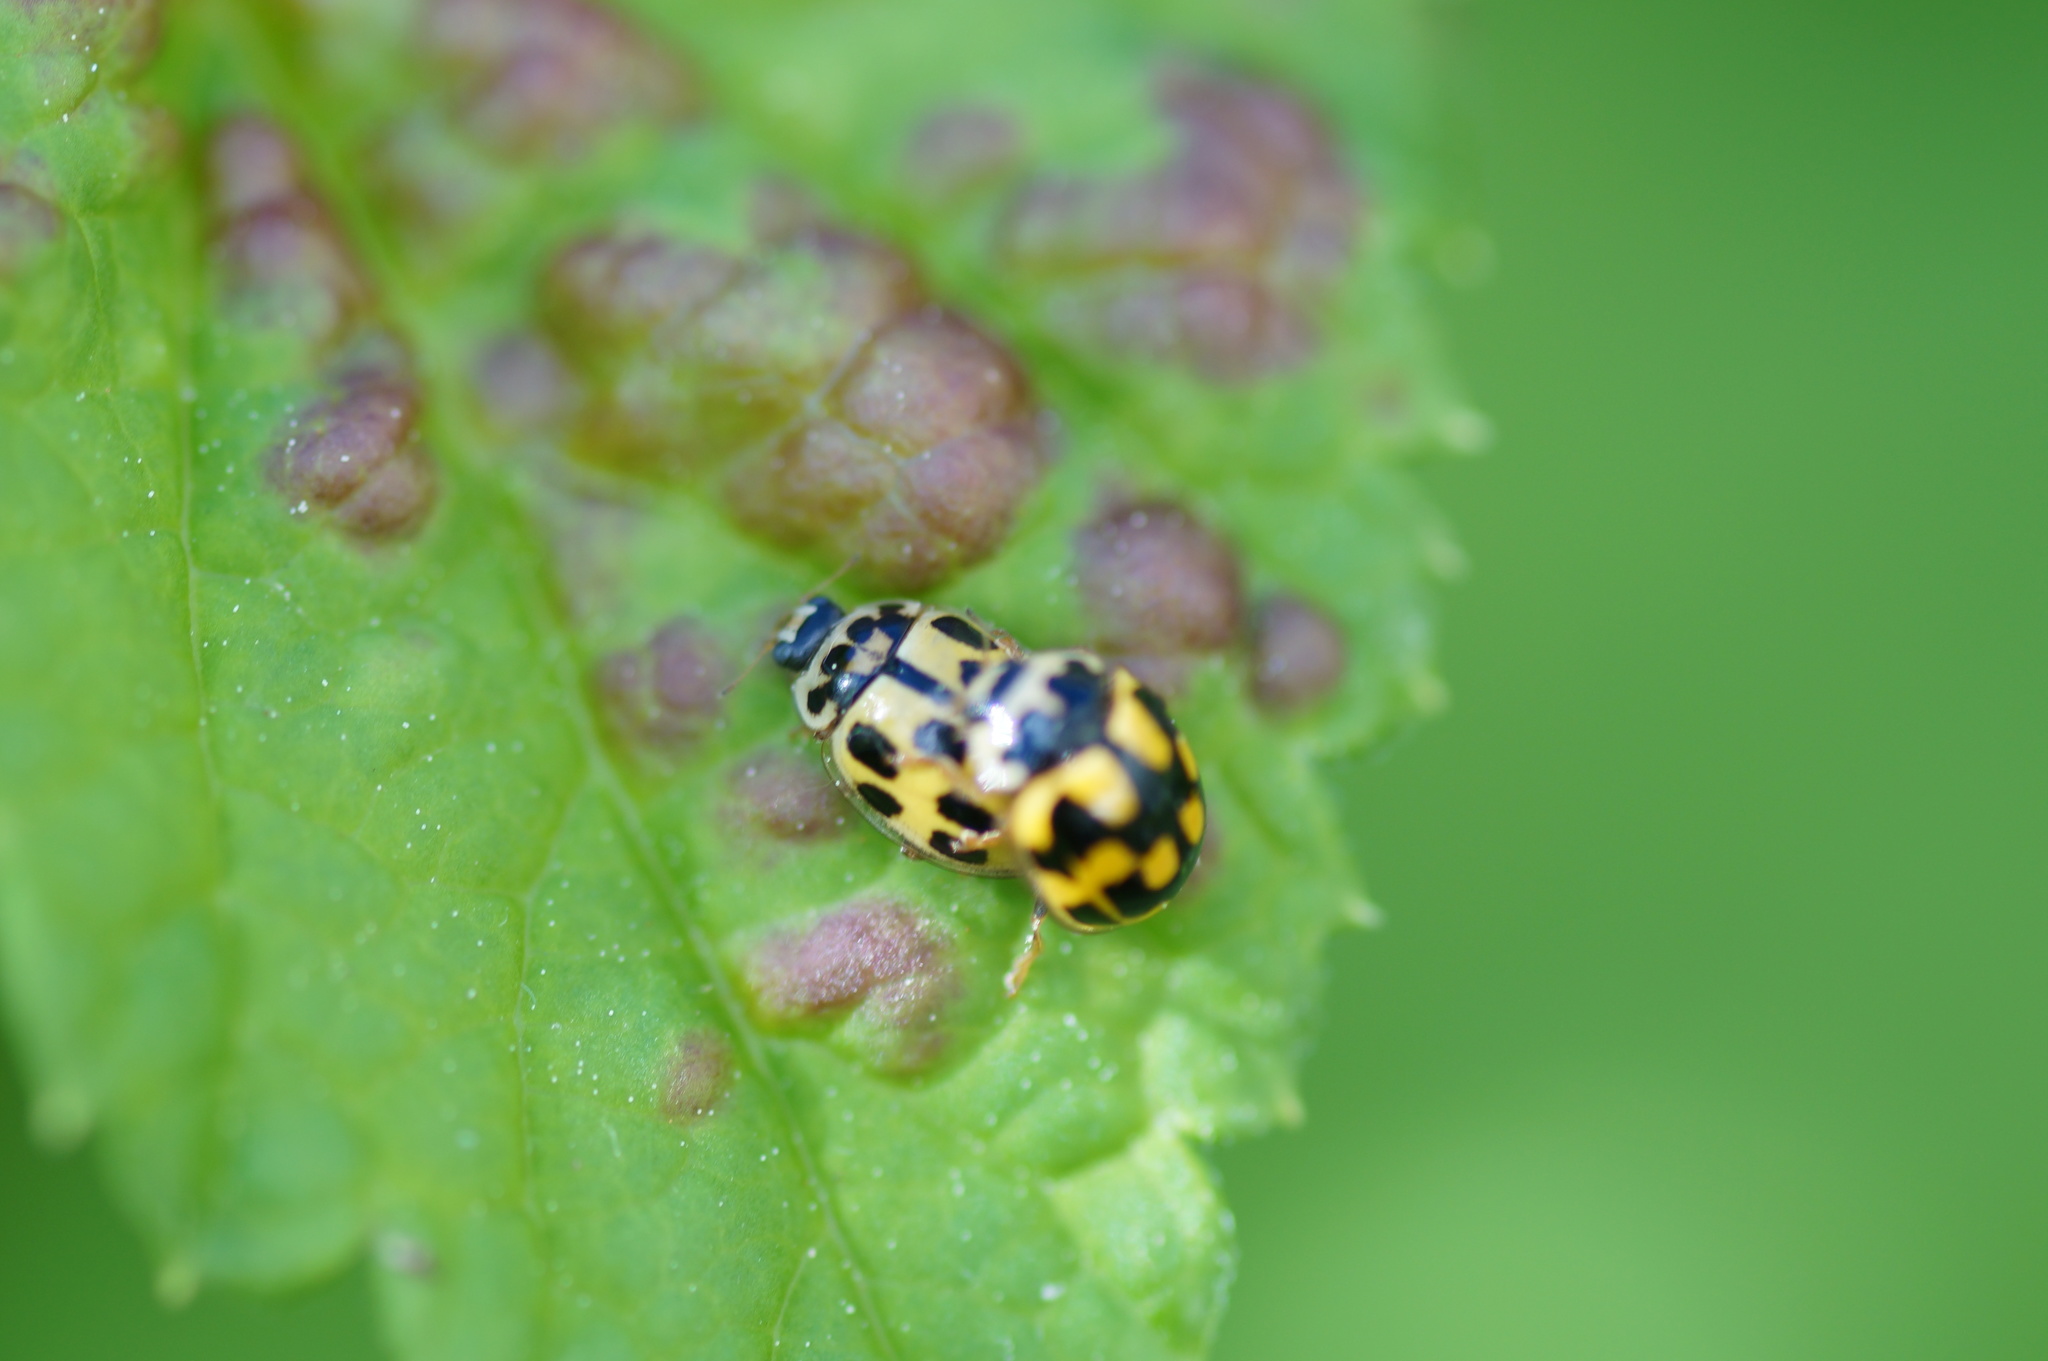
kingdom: Animalia
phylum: Arthropoda
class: Insecta
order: Coleoptera
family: Coccinellidae
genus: Propylaea
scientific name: Propylaea quatuordecimpunctata
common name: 14-spotted ladybird beetle
